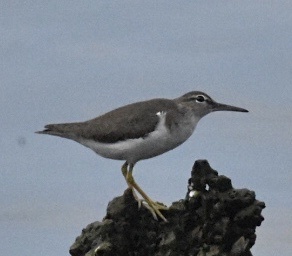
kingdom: Animalia
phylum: Chordata
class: Aves
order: Charadriiformes
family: Scolopacidae
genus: Actitis
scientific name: Actitis macularius
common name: Spotted sandpiper
